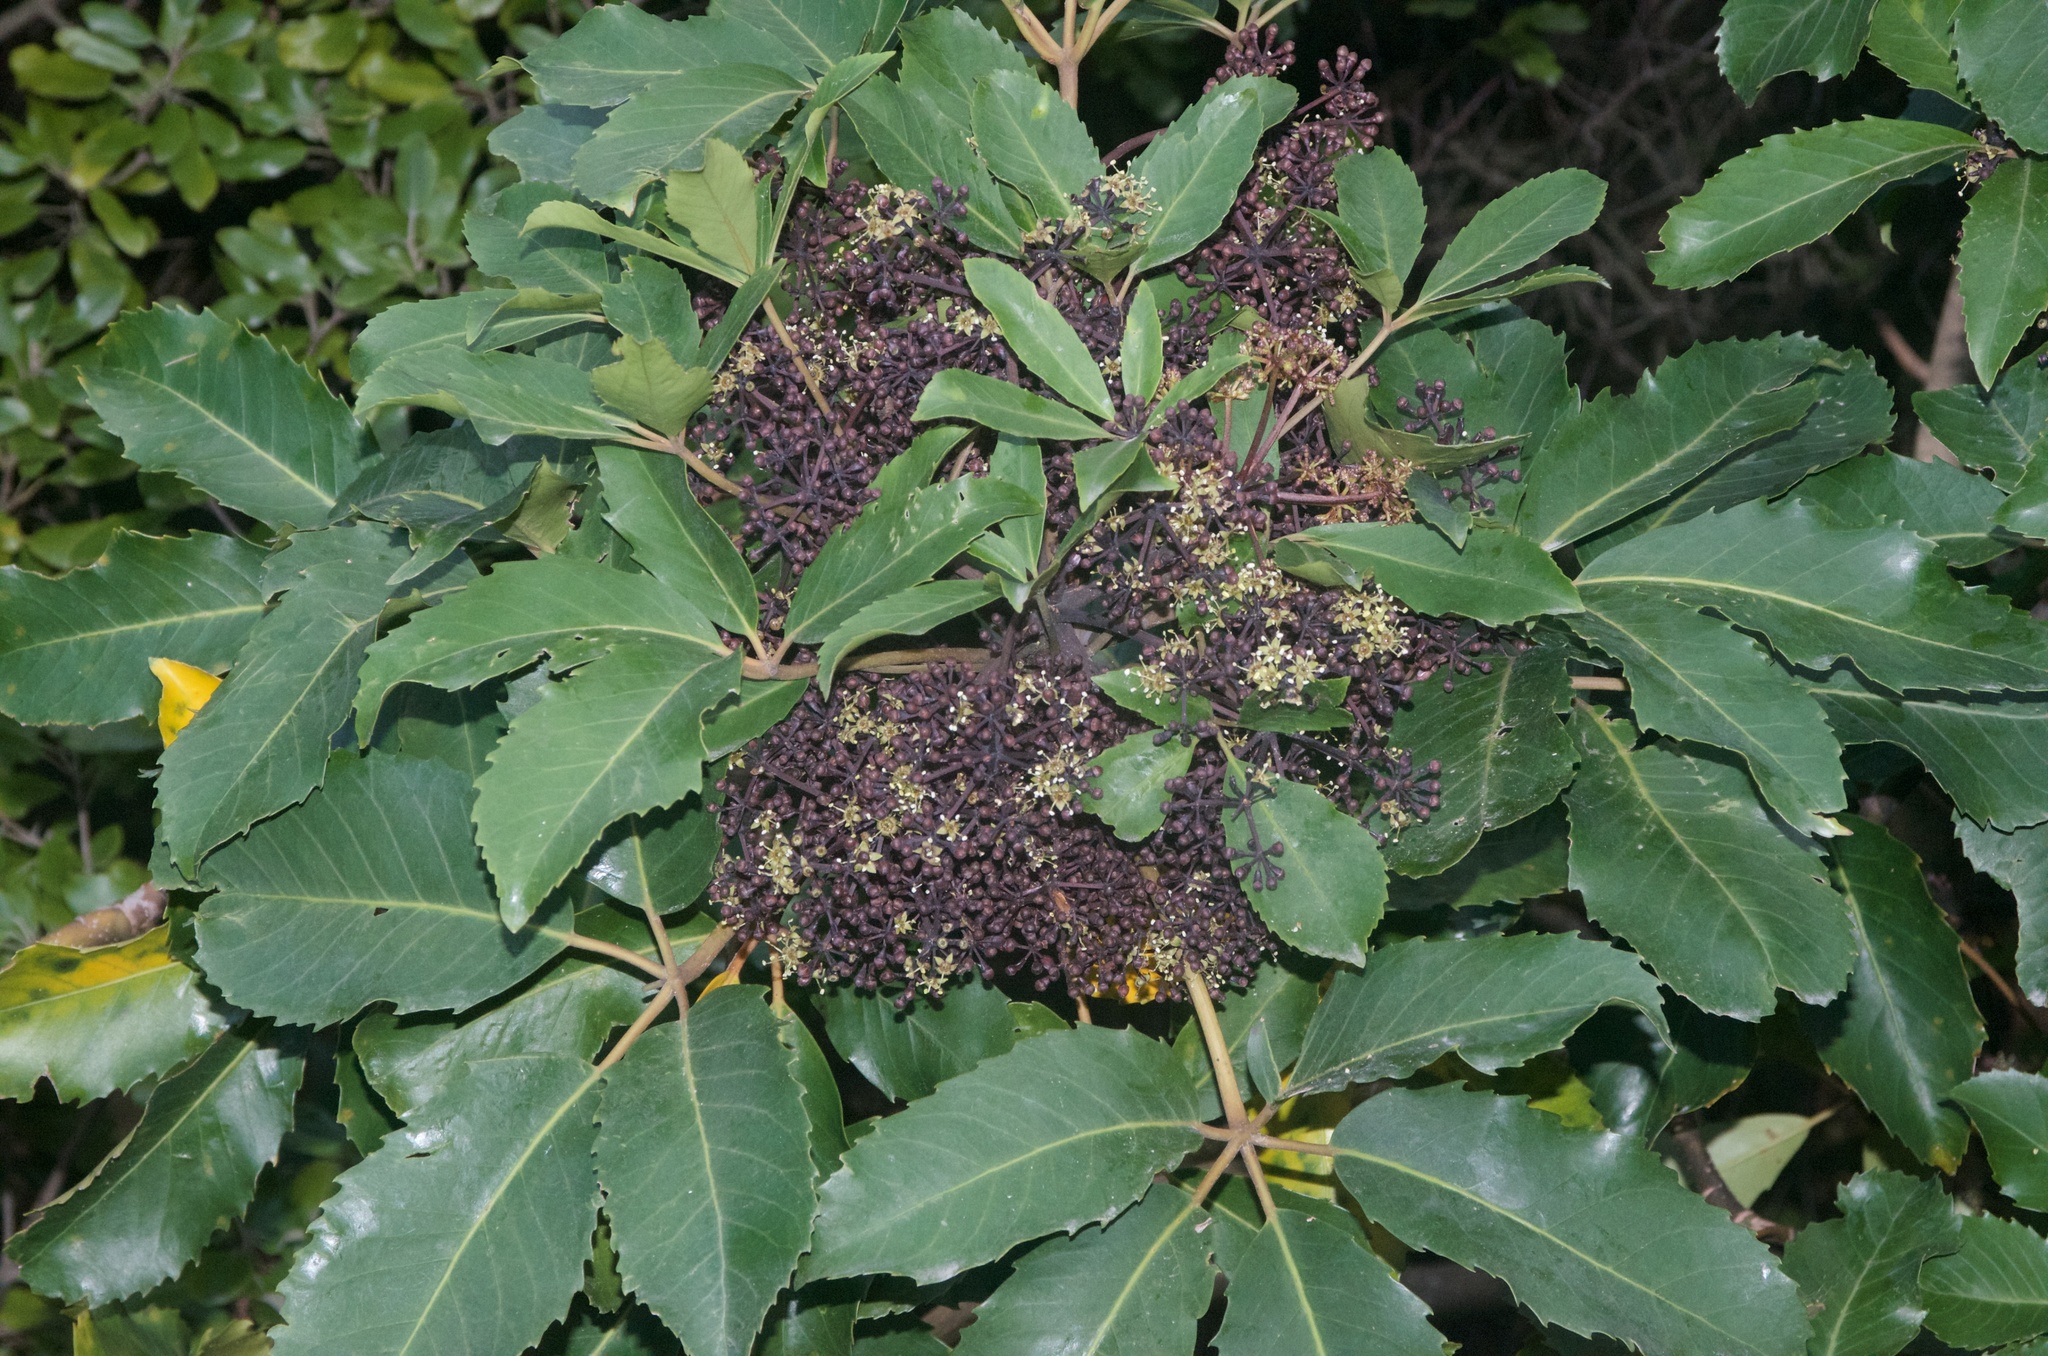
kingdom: Plantae
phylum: Tracheophyta
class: Magnoliopsida
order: Apiales
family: Araliaceae
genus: Neopanax
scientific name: Neopanax arboreus
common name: Five-fingers
